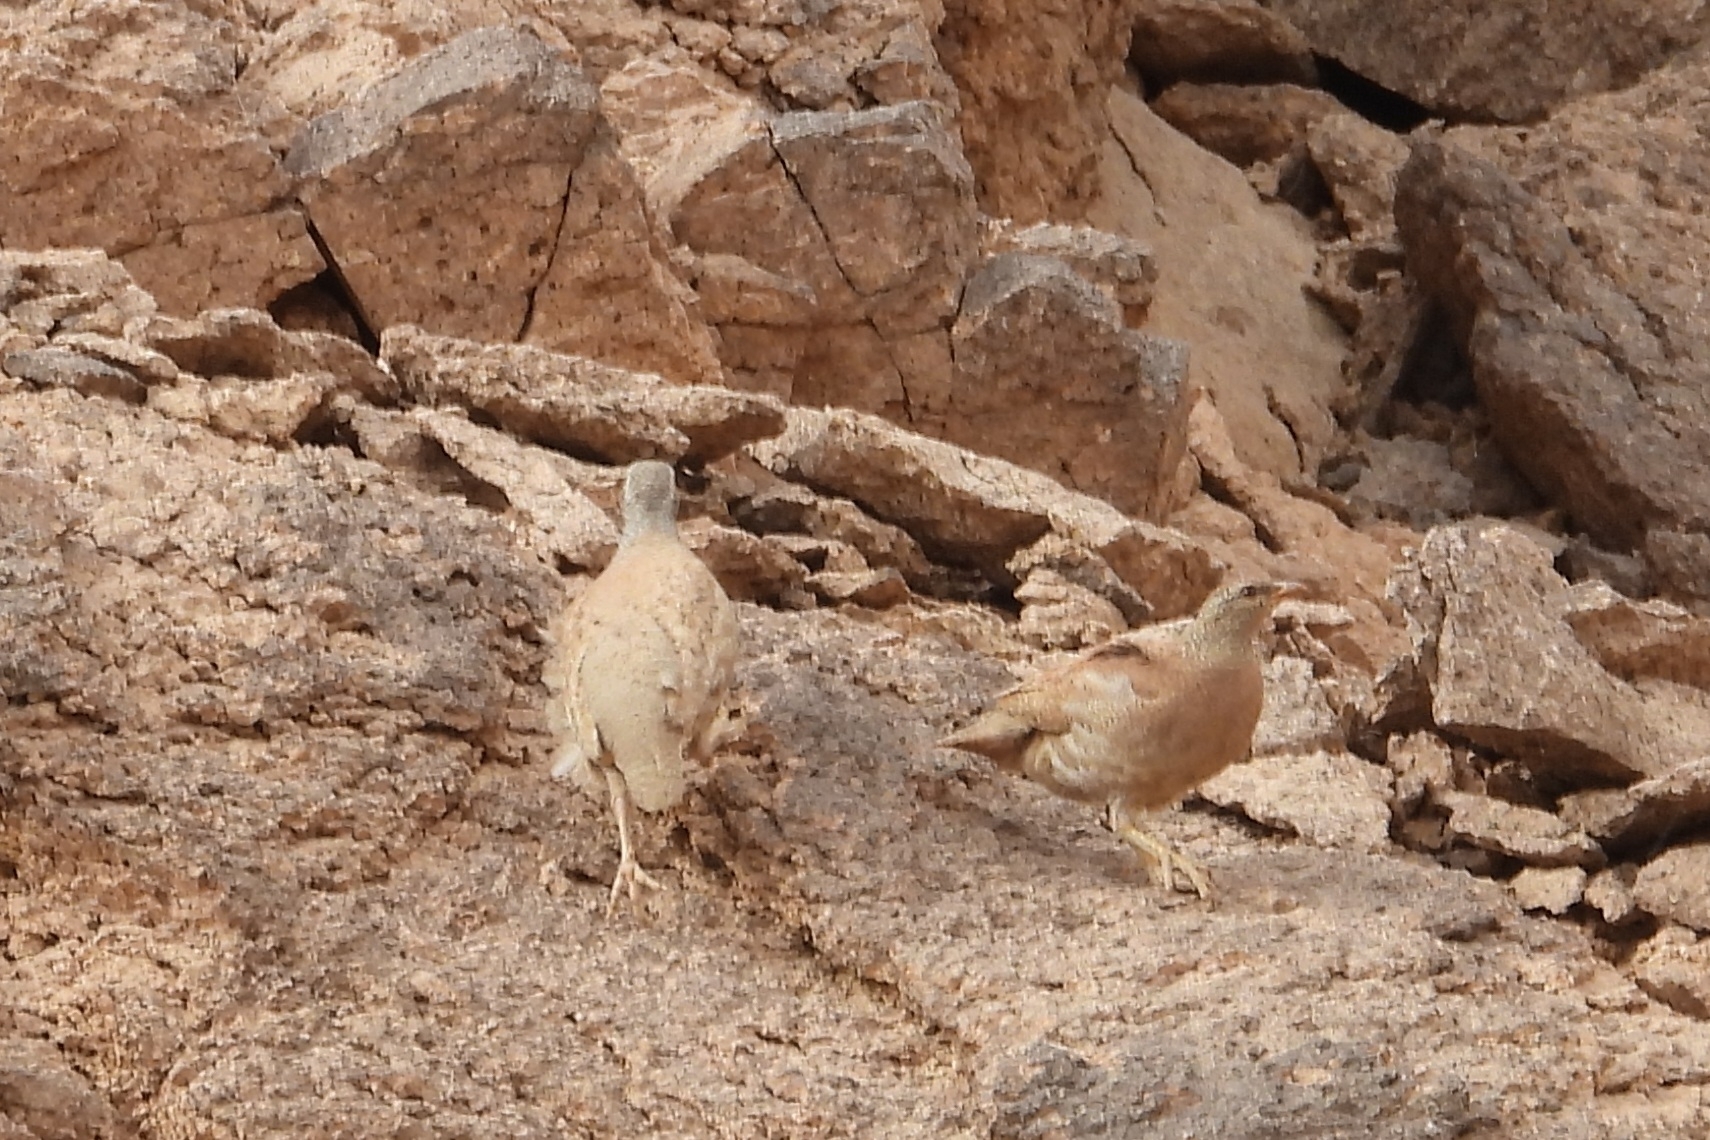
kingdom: Animalia
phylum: Chordata
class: Aves
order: Galliformes
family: Phasianidae
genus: Ammoperdix
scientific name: Ammoperdix heyi
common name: Sand partridge
